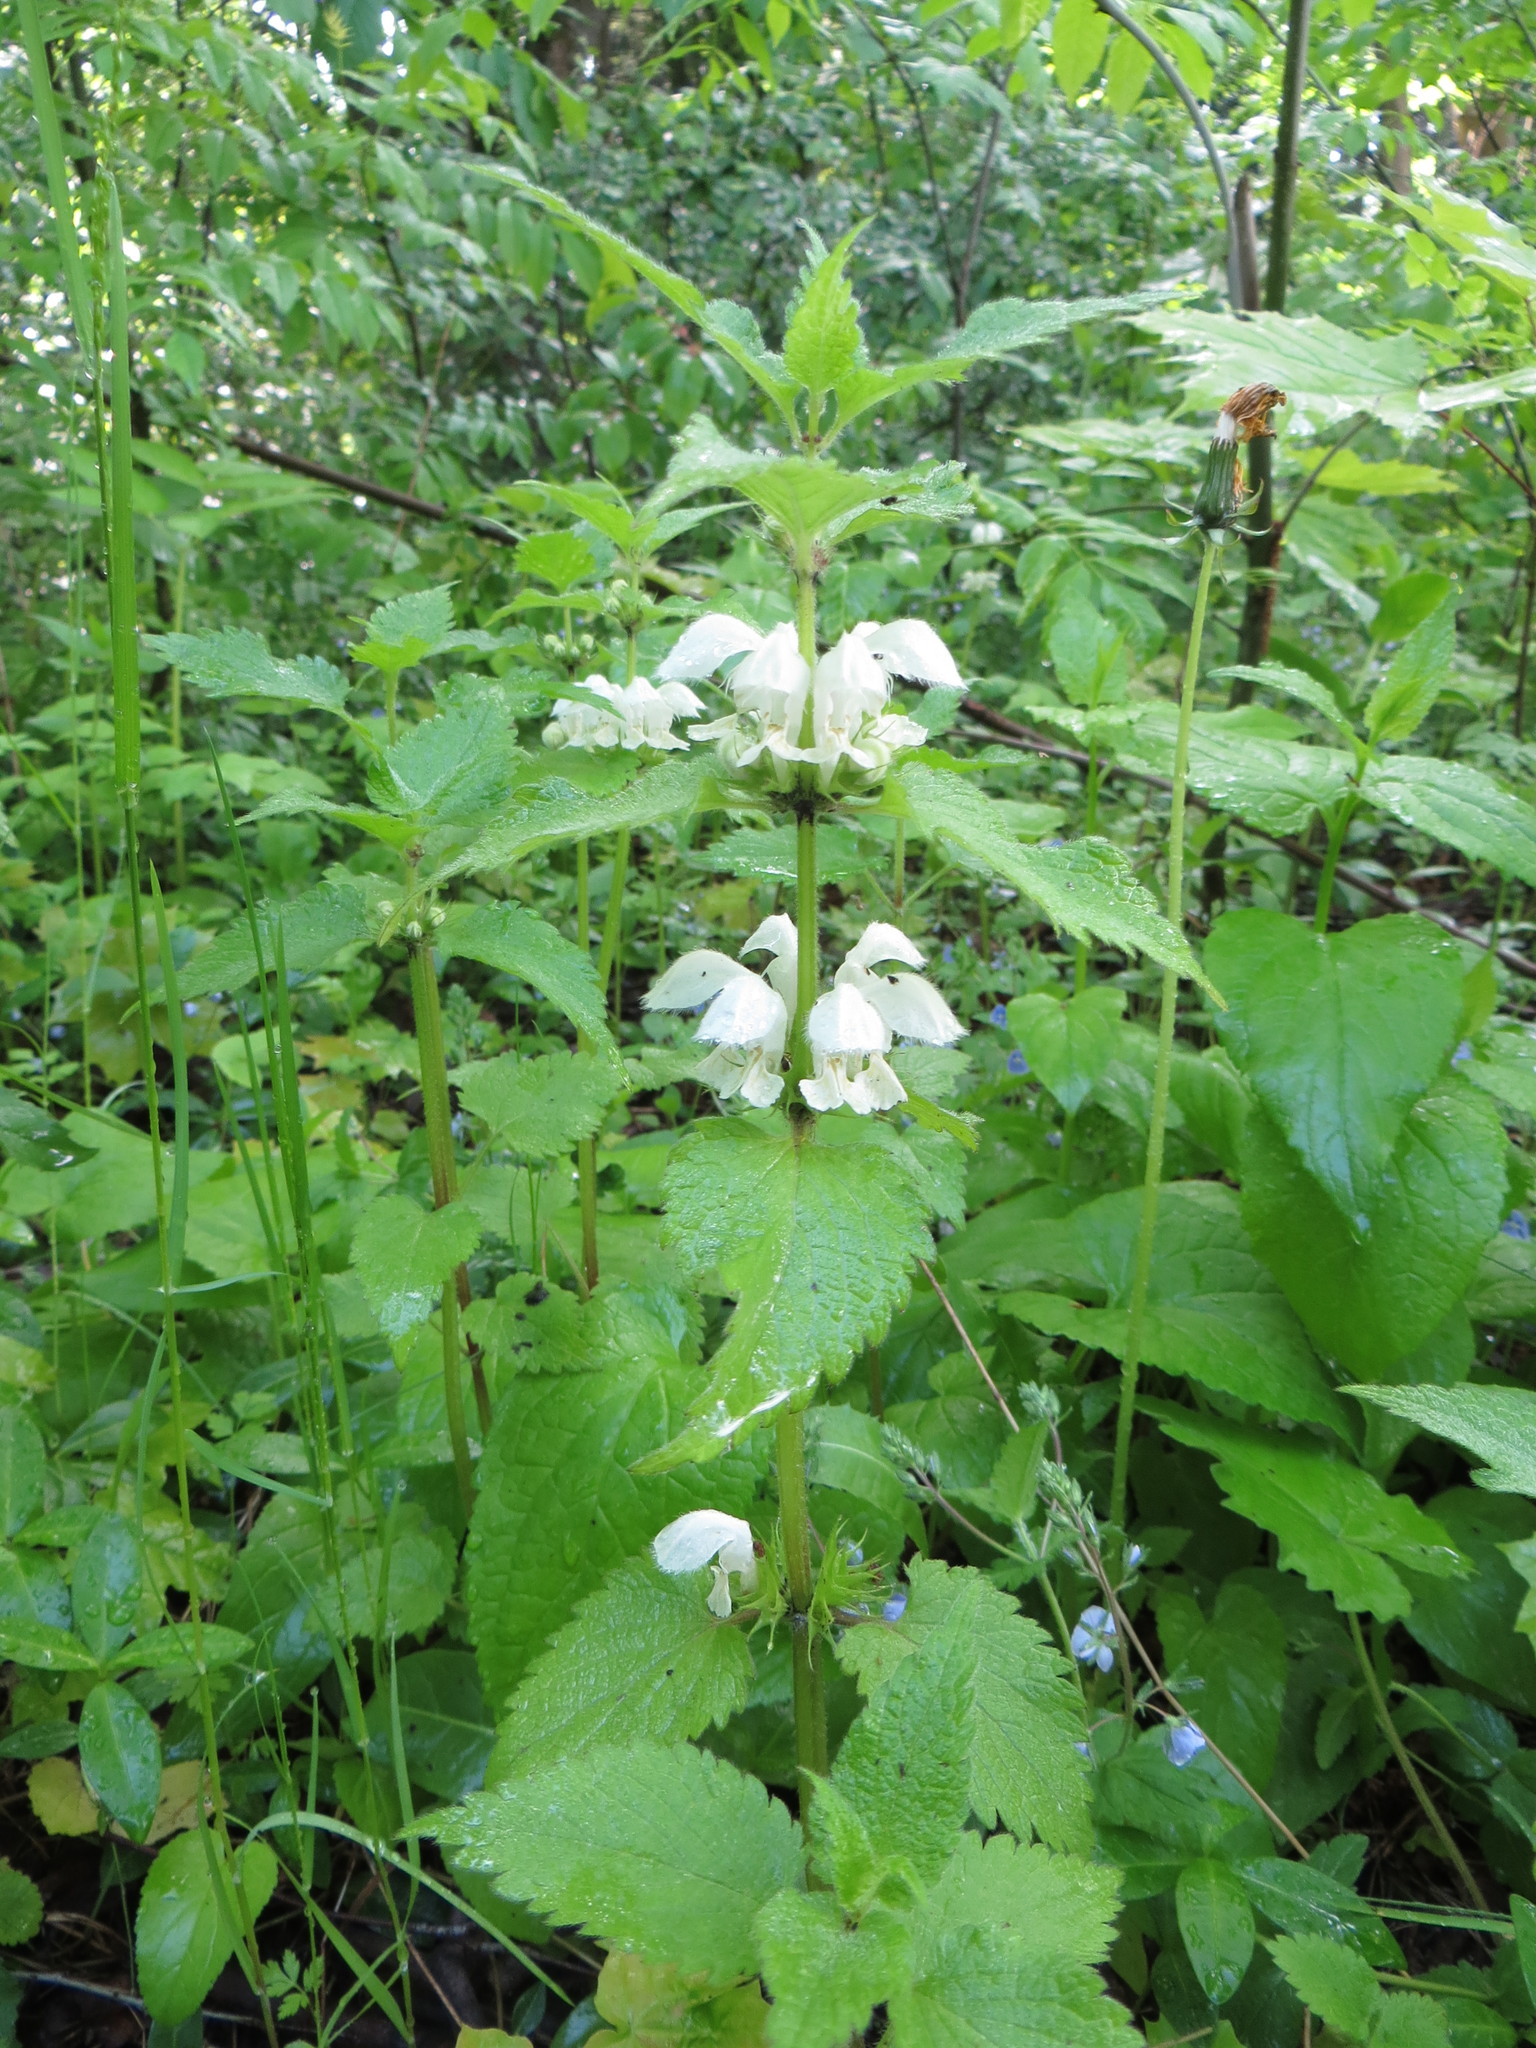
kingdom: Plantae
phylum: Tracheophyta
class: Magnoliopsida
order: Lamiales
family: Lamiaceae
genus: Lamium
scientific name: Lamium album
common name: White dead-nettle
